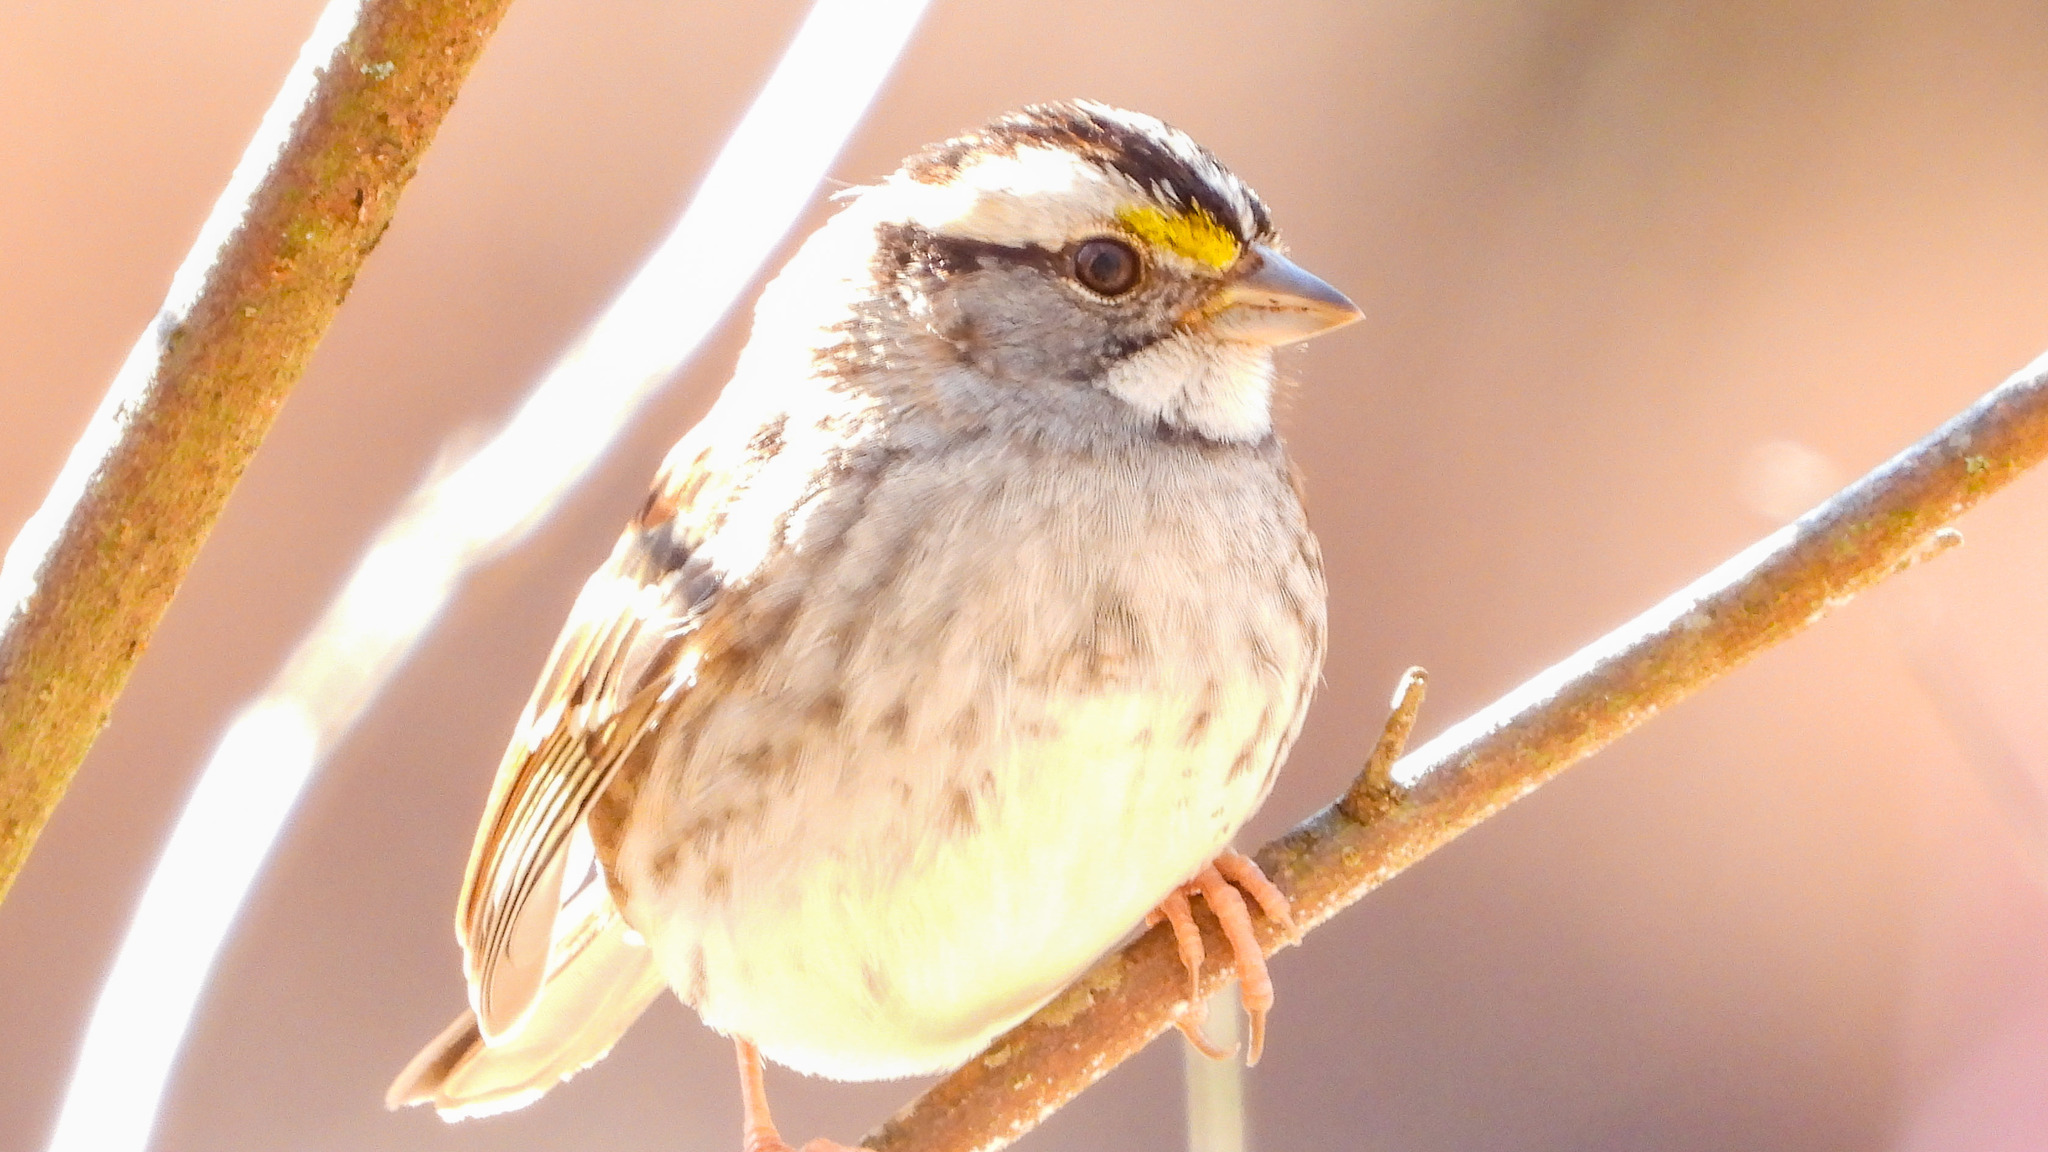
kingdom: Animalia
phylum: Chordata
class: Aves
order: Passeriformes
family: Passerellidae
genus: Zonotrichia
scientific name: Zonotrichia albicollis
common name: White-throated sparrow
